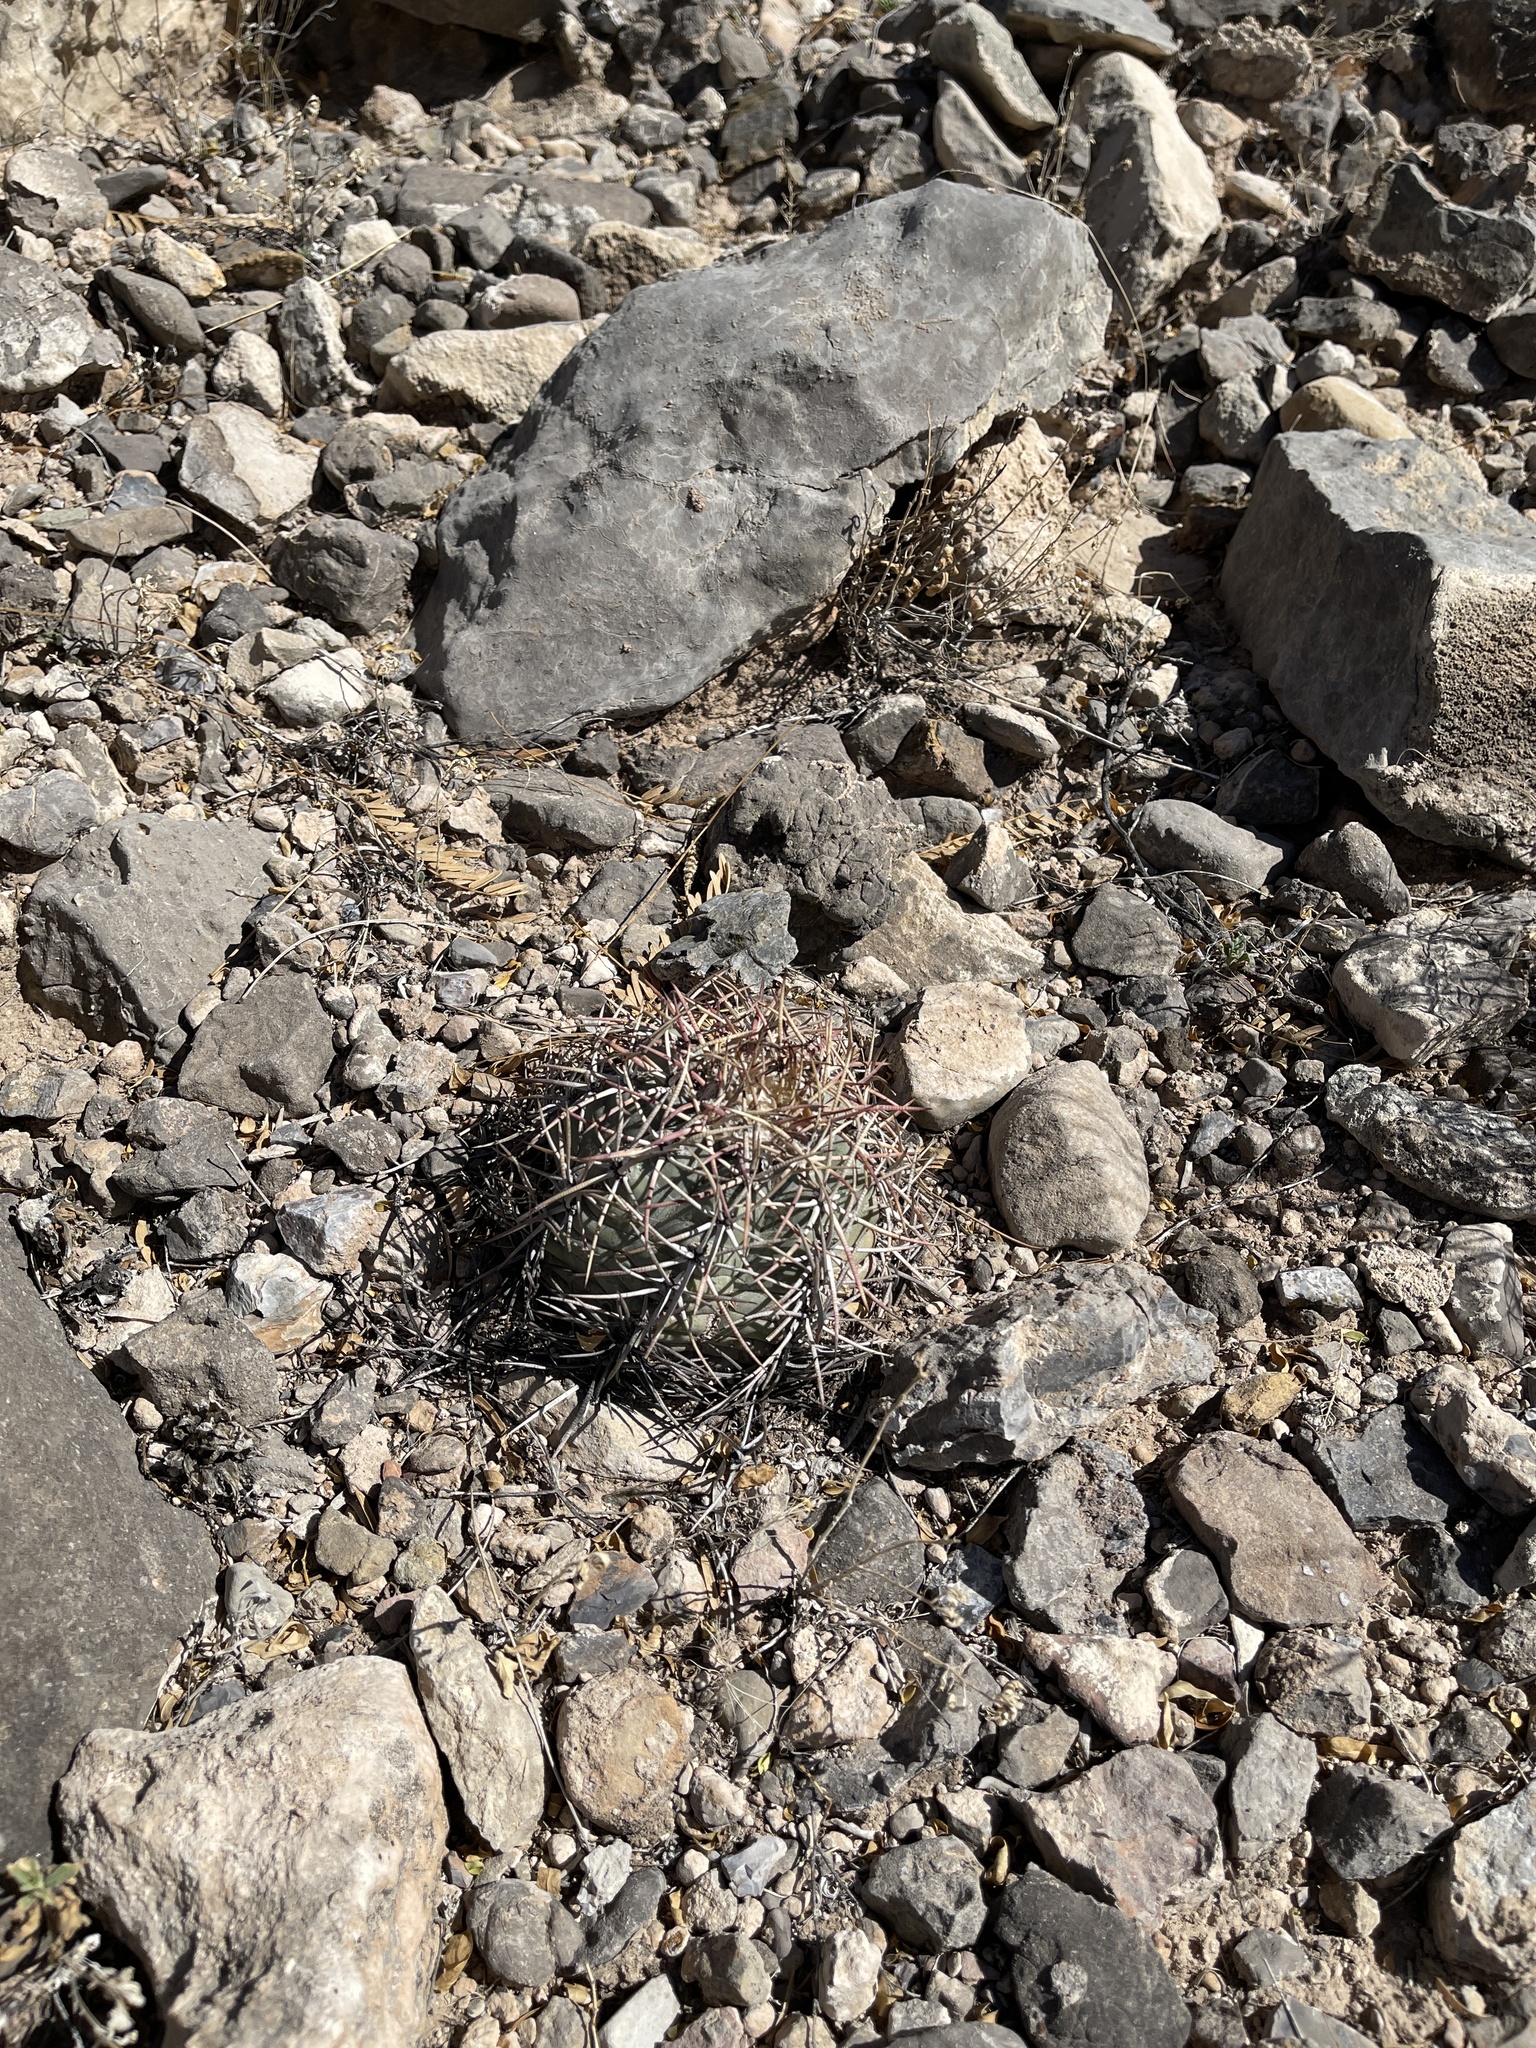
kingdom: Plantae
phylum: Tracheophyta
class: Magnoliopsida
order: Caryophyllales
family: Cactaceae
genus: Echinocactus
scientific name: Echinocactus horizonthalonius
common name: Devilshead
